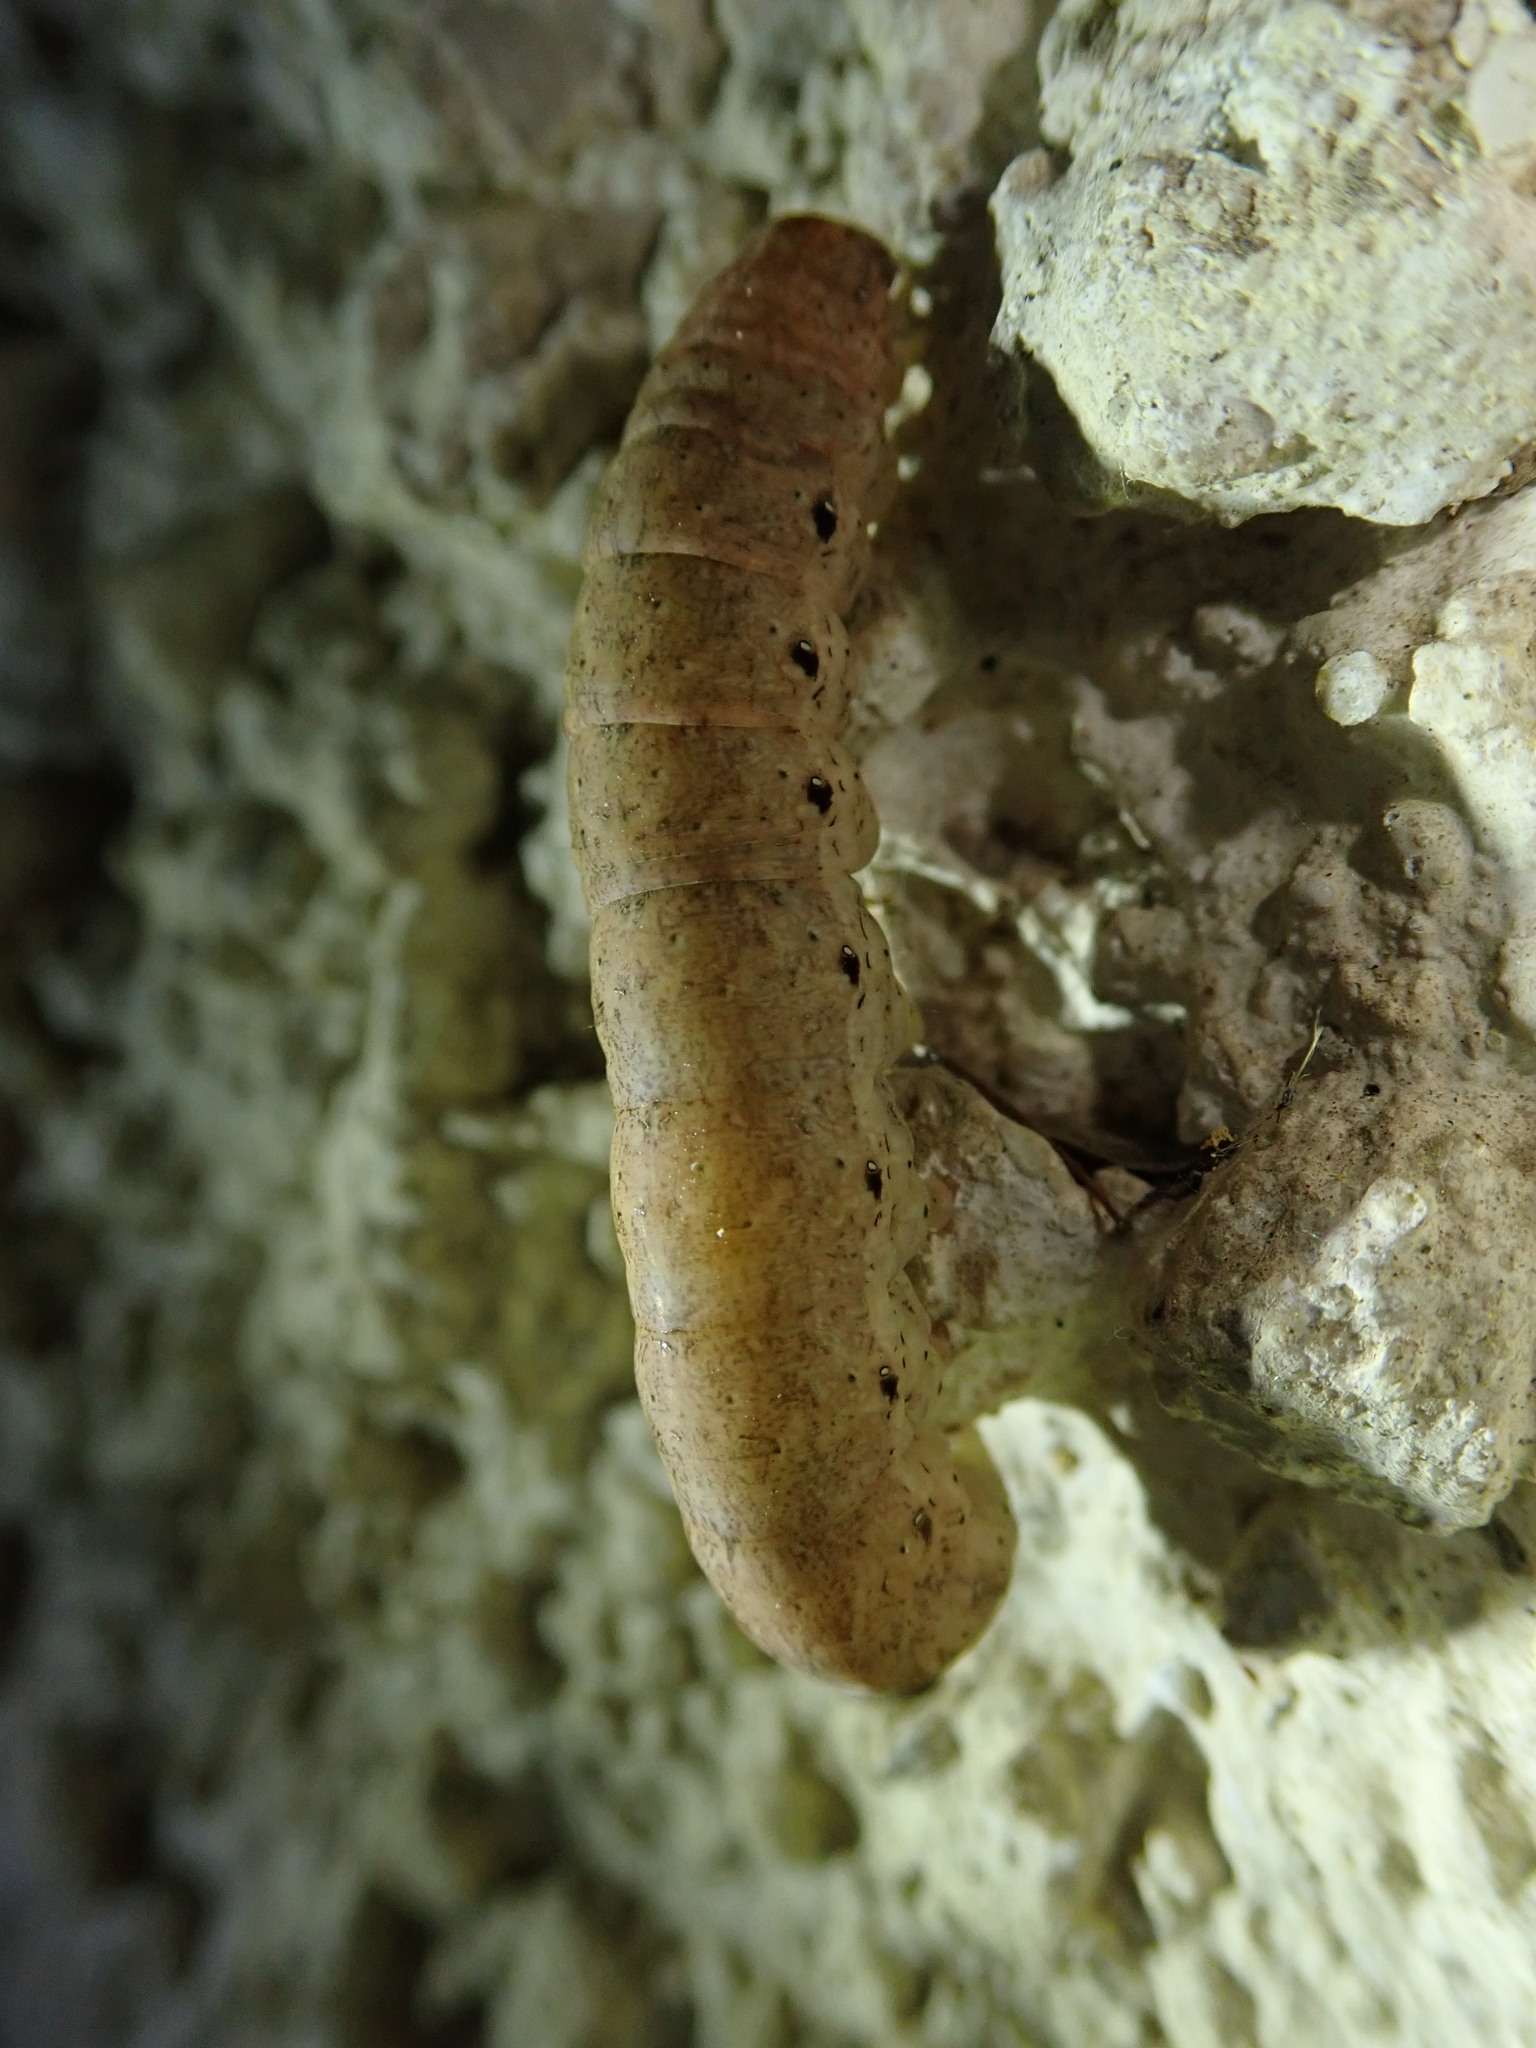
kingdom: Animalia
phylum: Arthropoda
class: Insecta
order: Lepidoptera
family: Noctuidae
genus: Noctua
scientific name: Noctua fimbriata
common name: Broad-bordered yellow underwing
